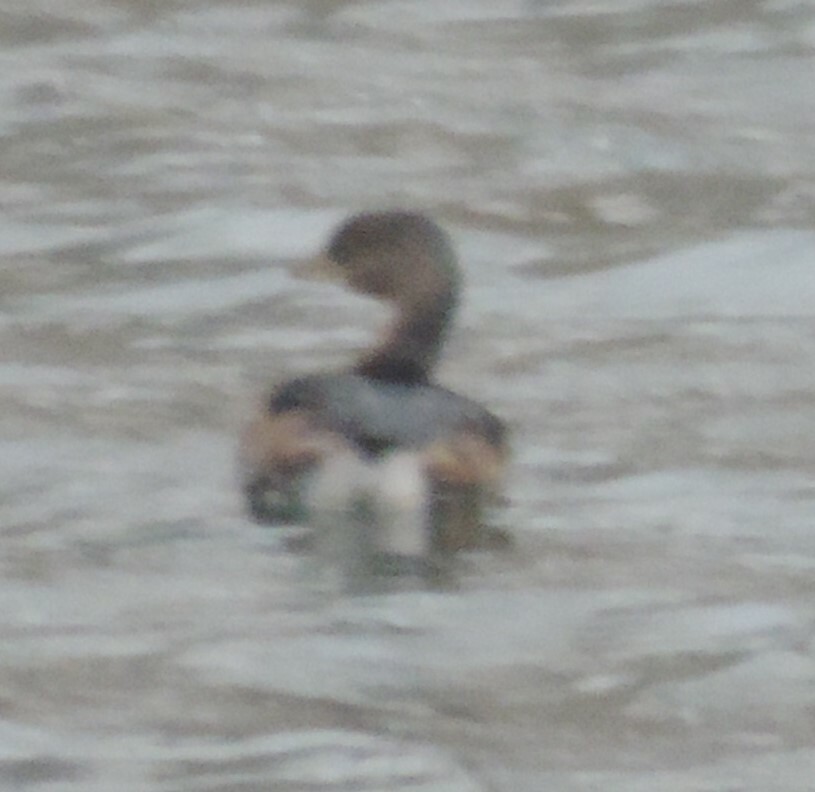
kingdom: Animalia
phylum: Chordata
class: Aves
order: Podicipediformes
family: Podicipedidae
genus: Podilymbus
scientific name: Podilymbus podiceps
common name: Pied-billed grebe
